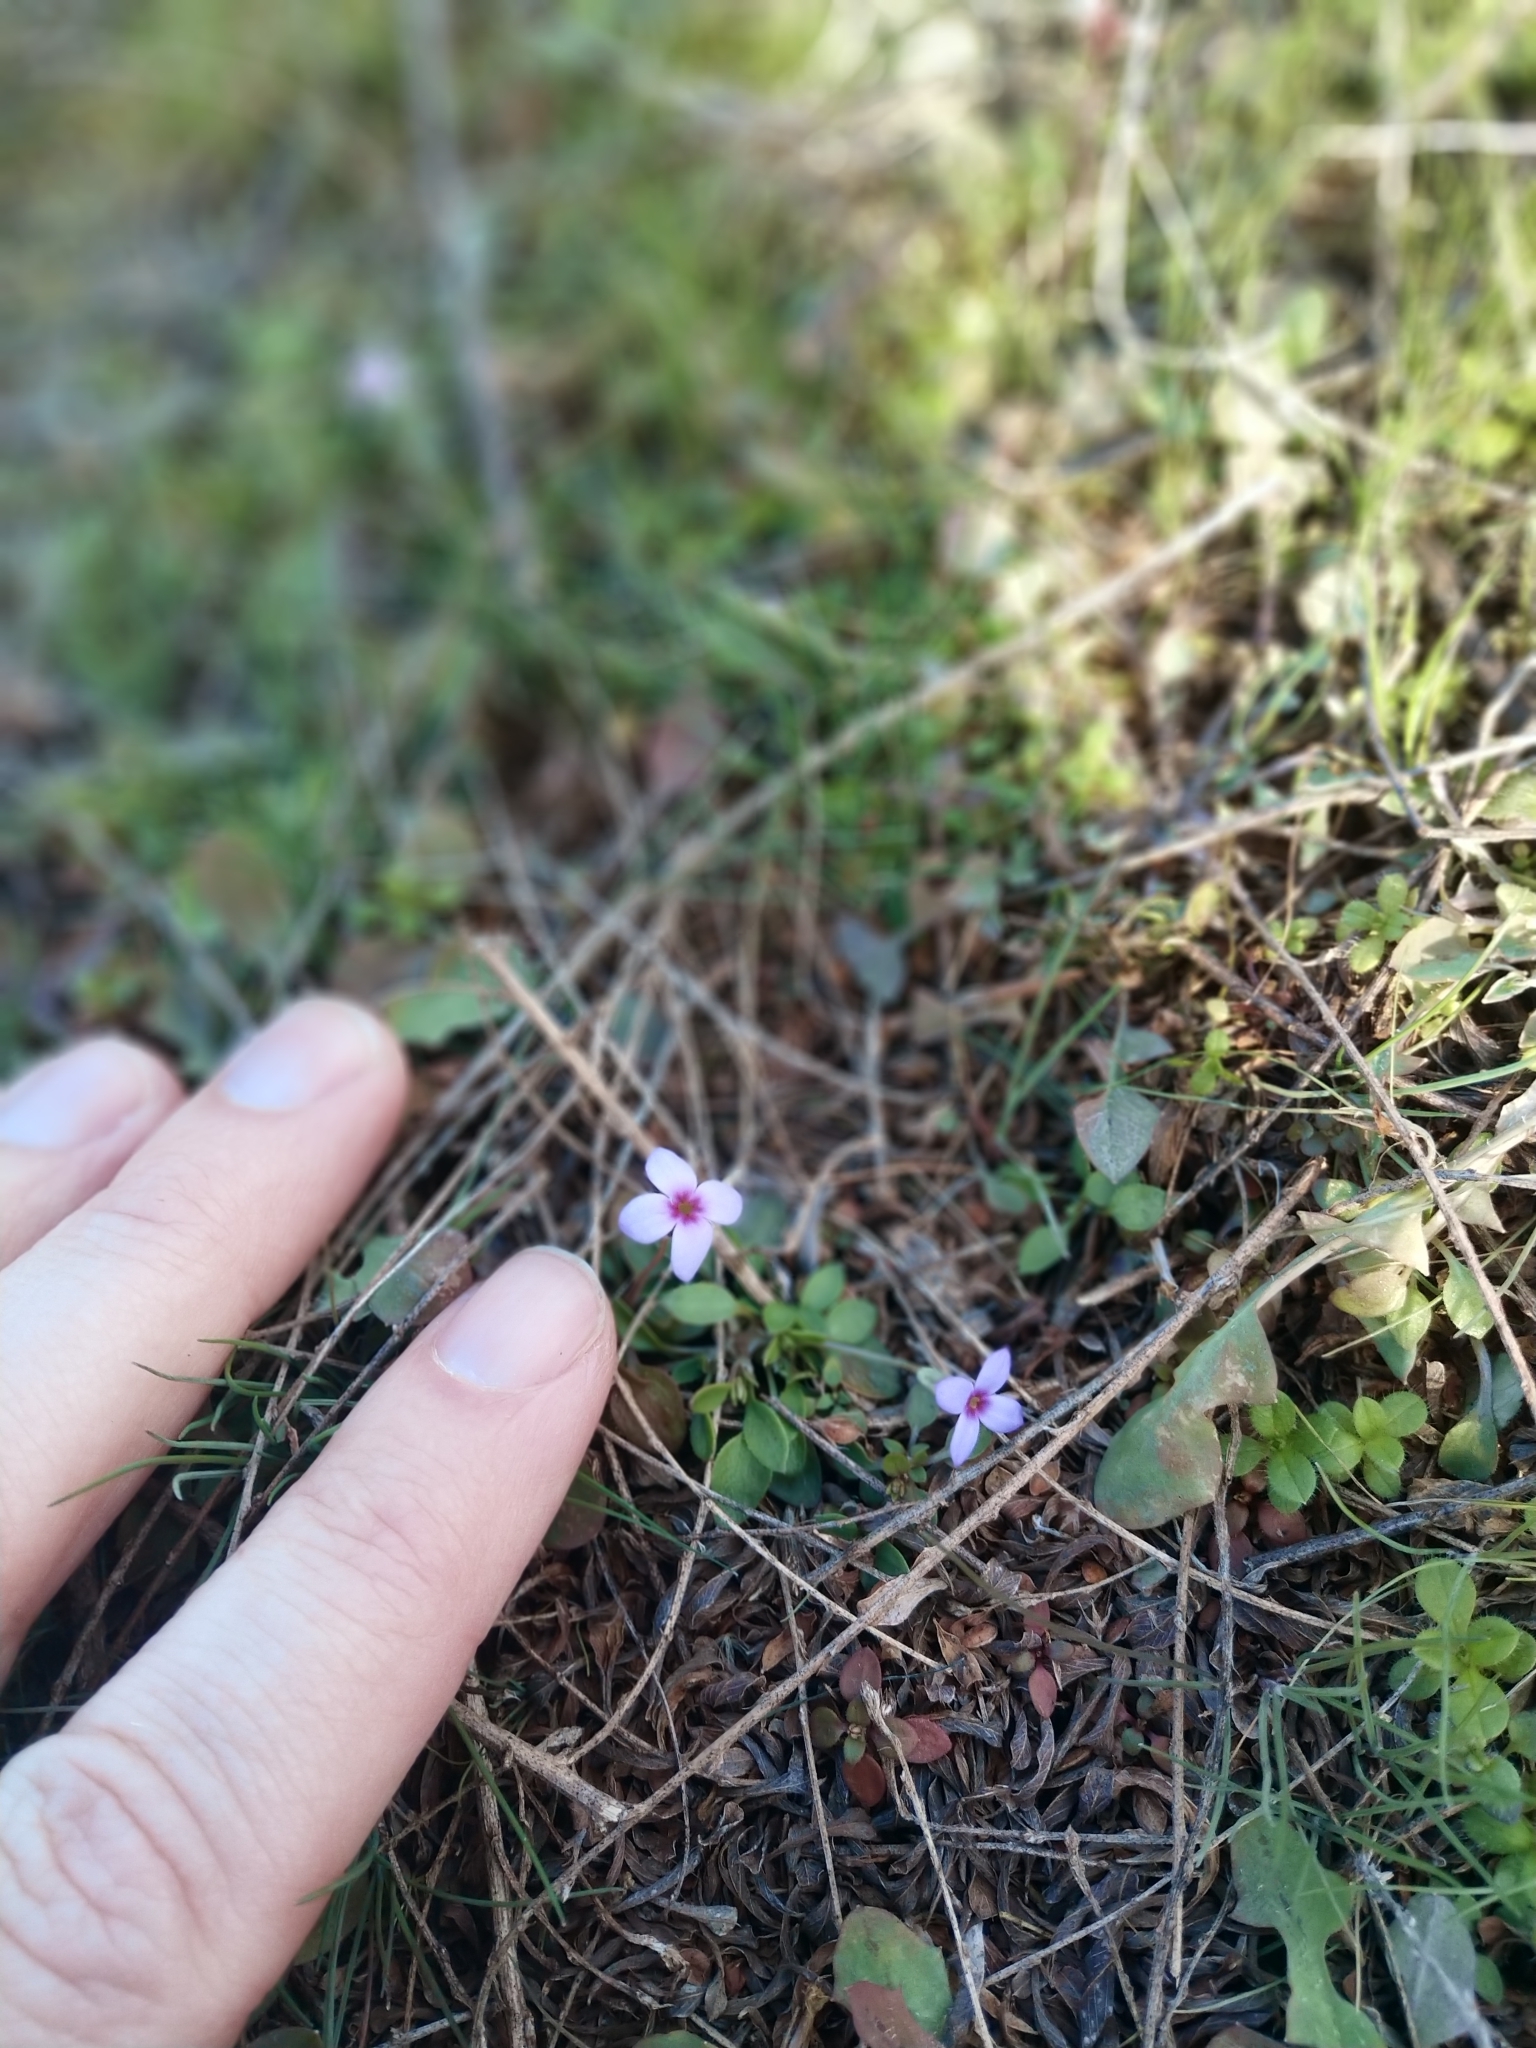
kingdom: Plantae
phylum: Tracheophyta
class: Magnoliopsida
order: Gentianales
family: Rubiaceae
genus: Houstonia
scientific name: Houstonia pusilla
